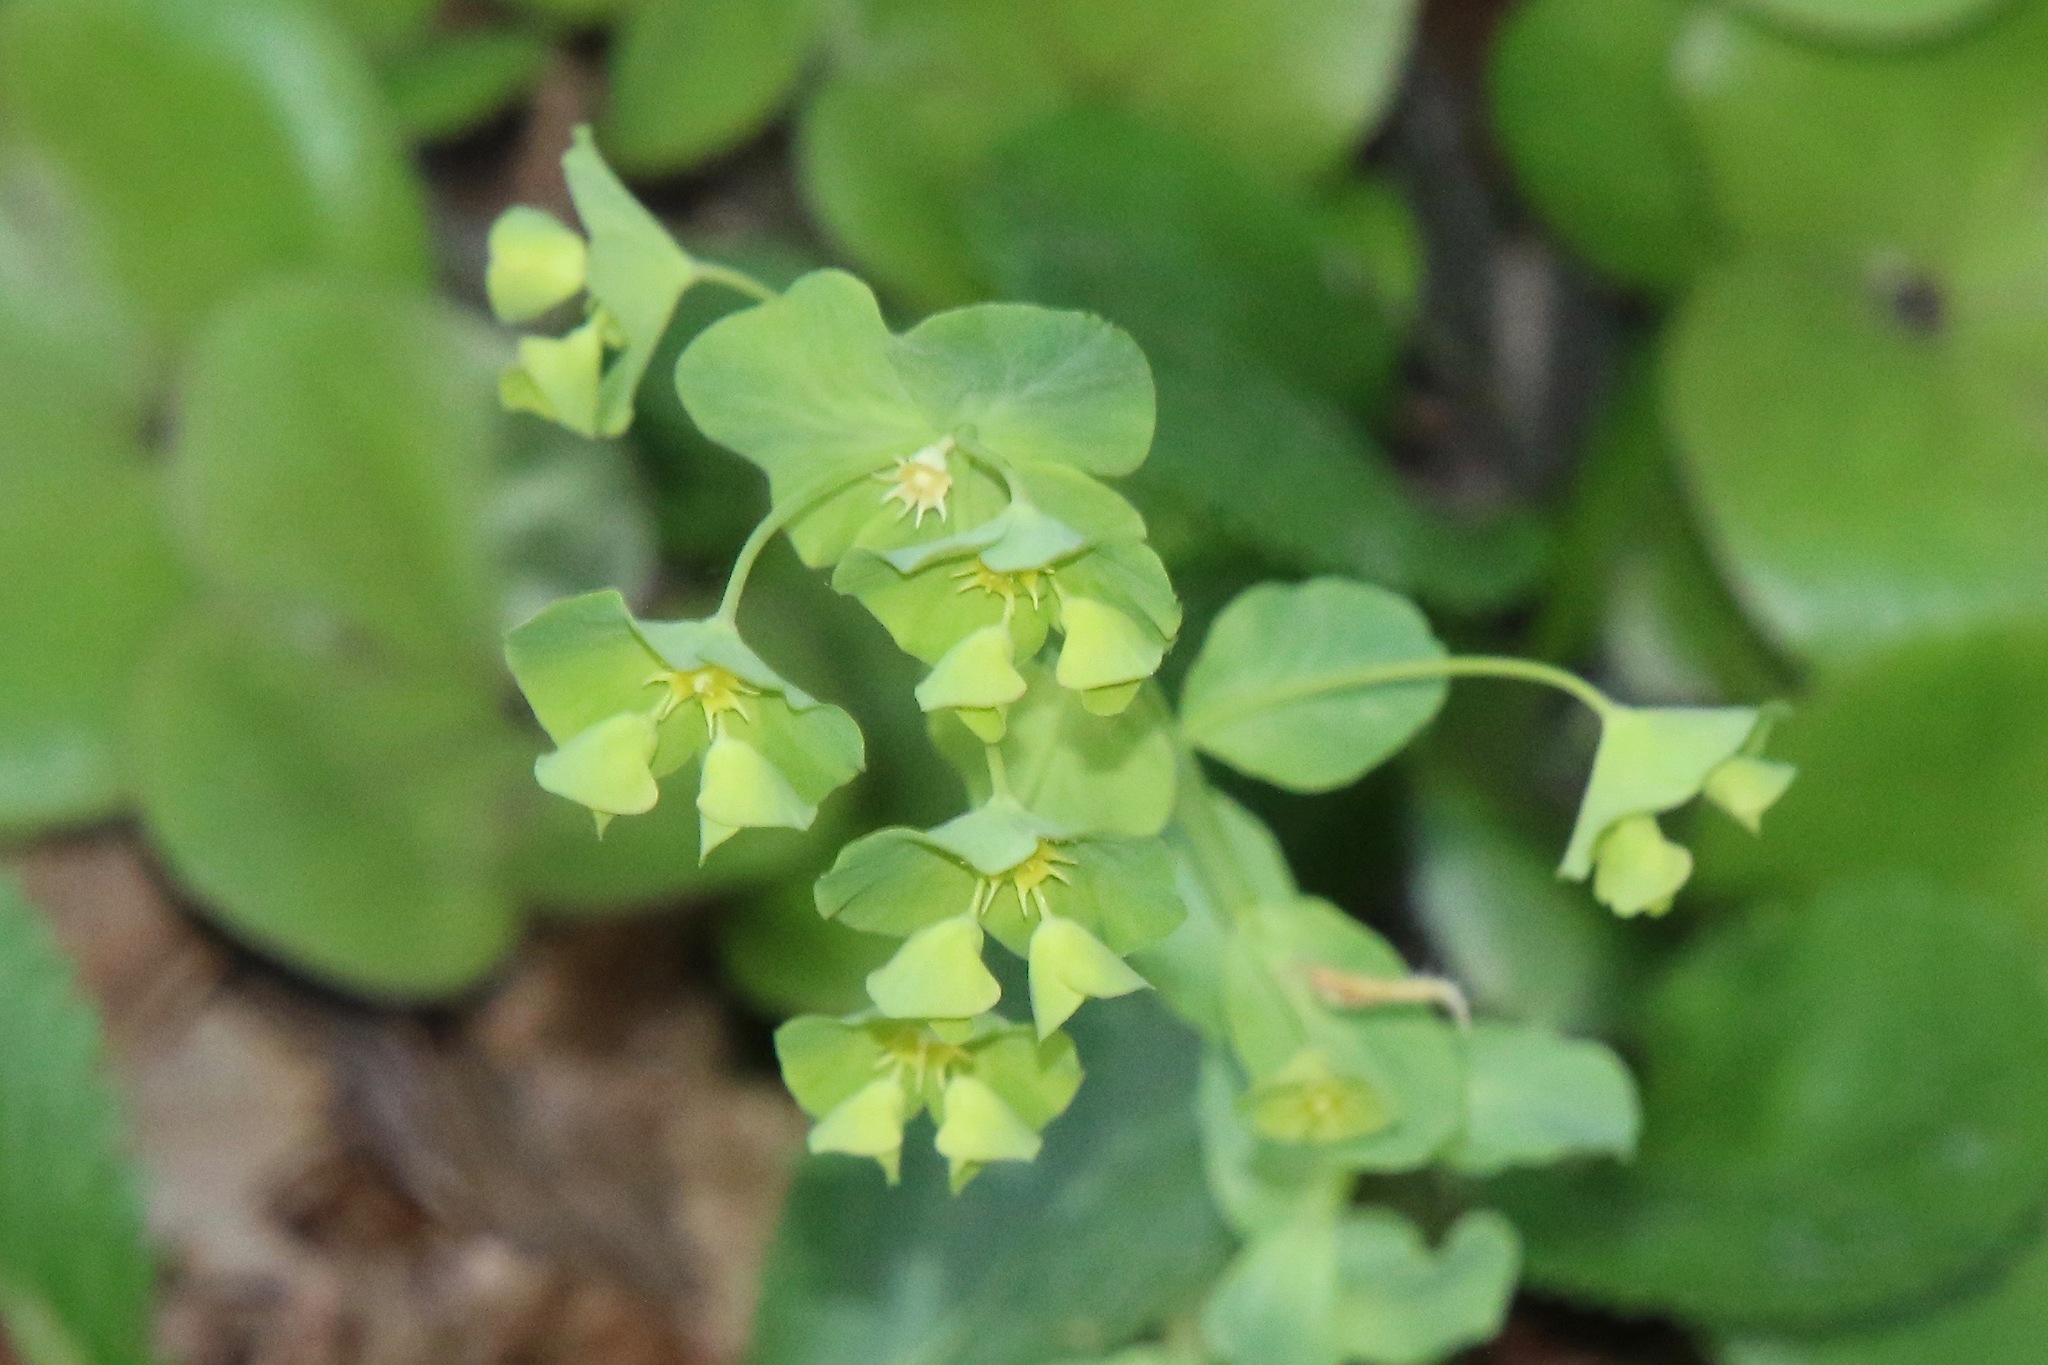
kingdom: Plantae
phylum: Tracheophyta
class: Magnoliopsida
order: Malpighiales
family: Euphorbiaceae
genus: Euphorbia
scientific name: Euphorbia commutata
